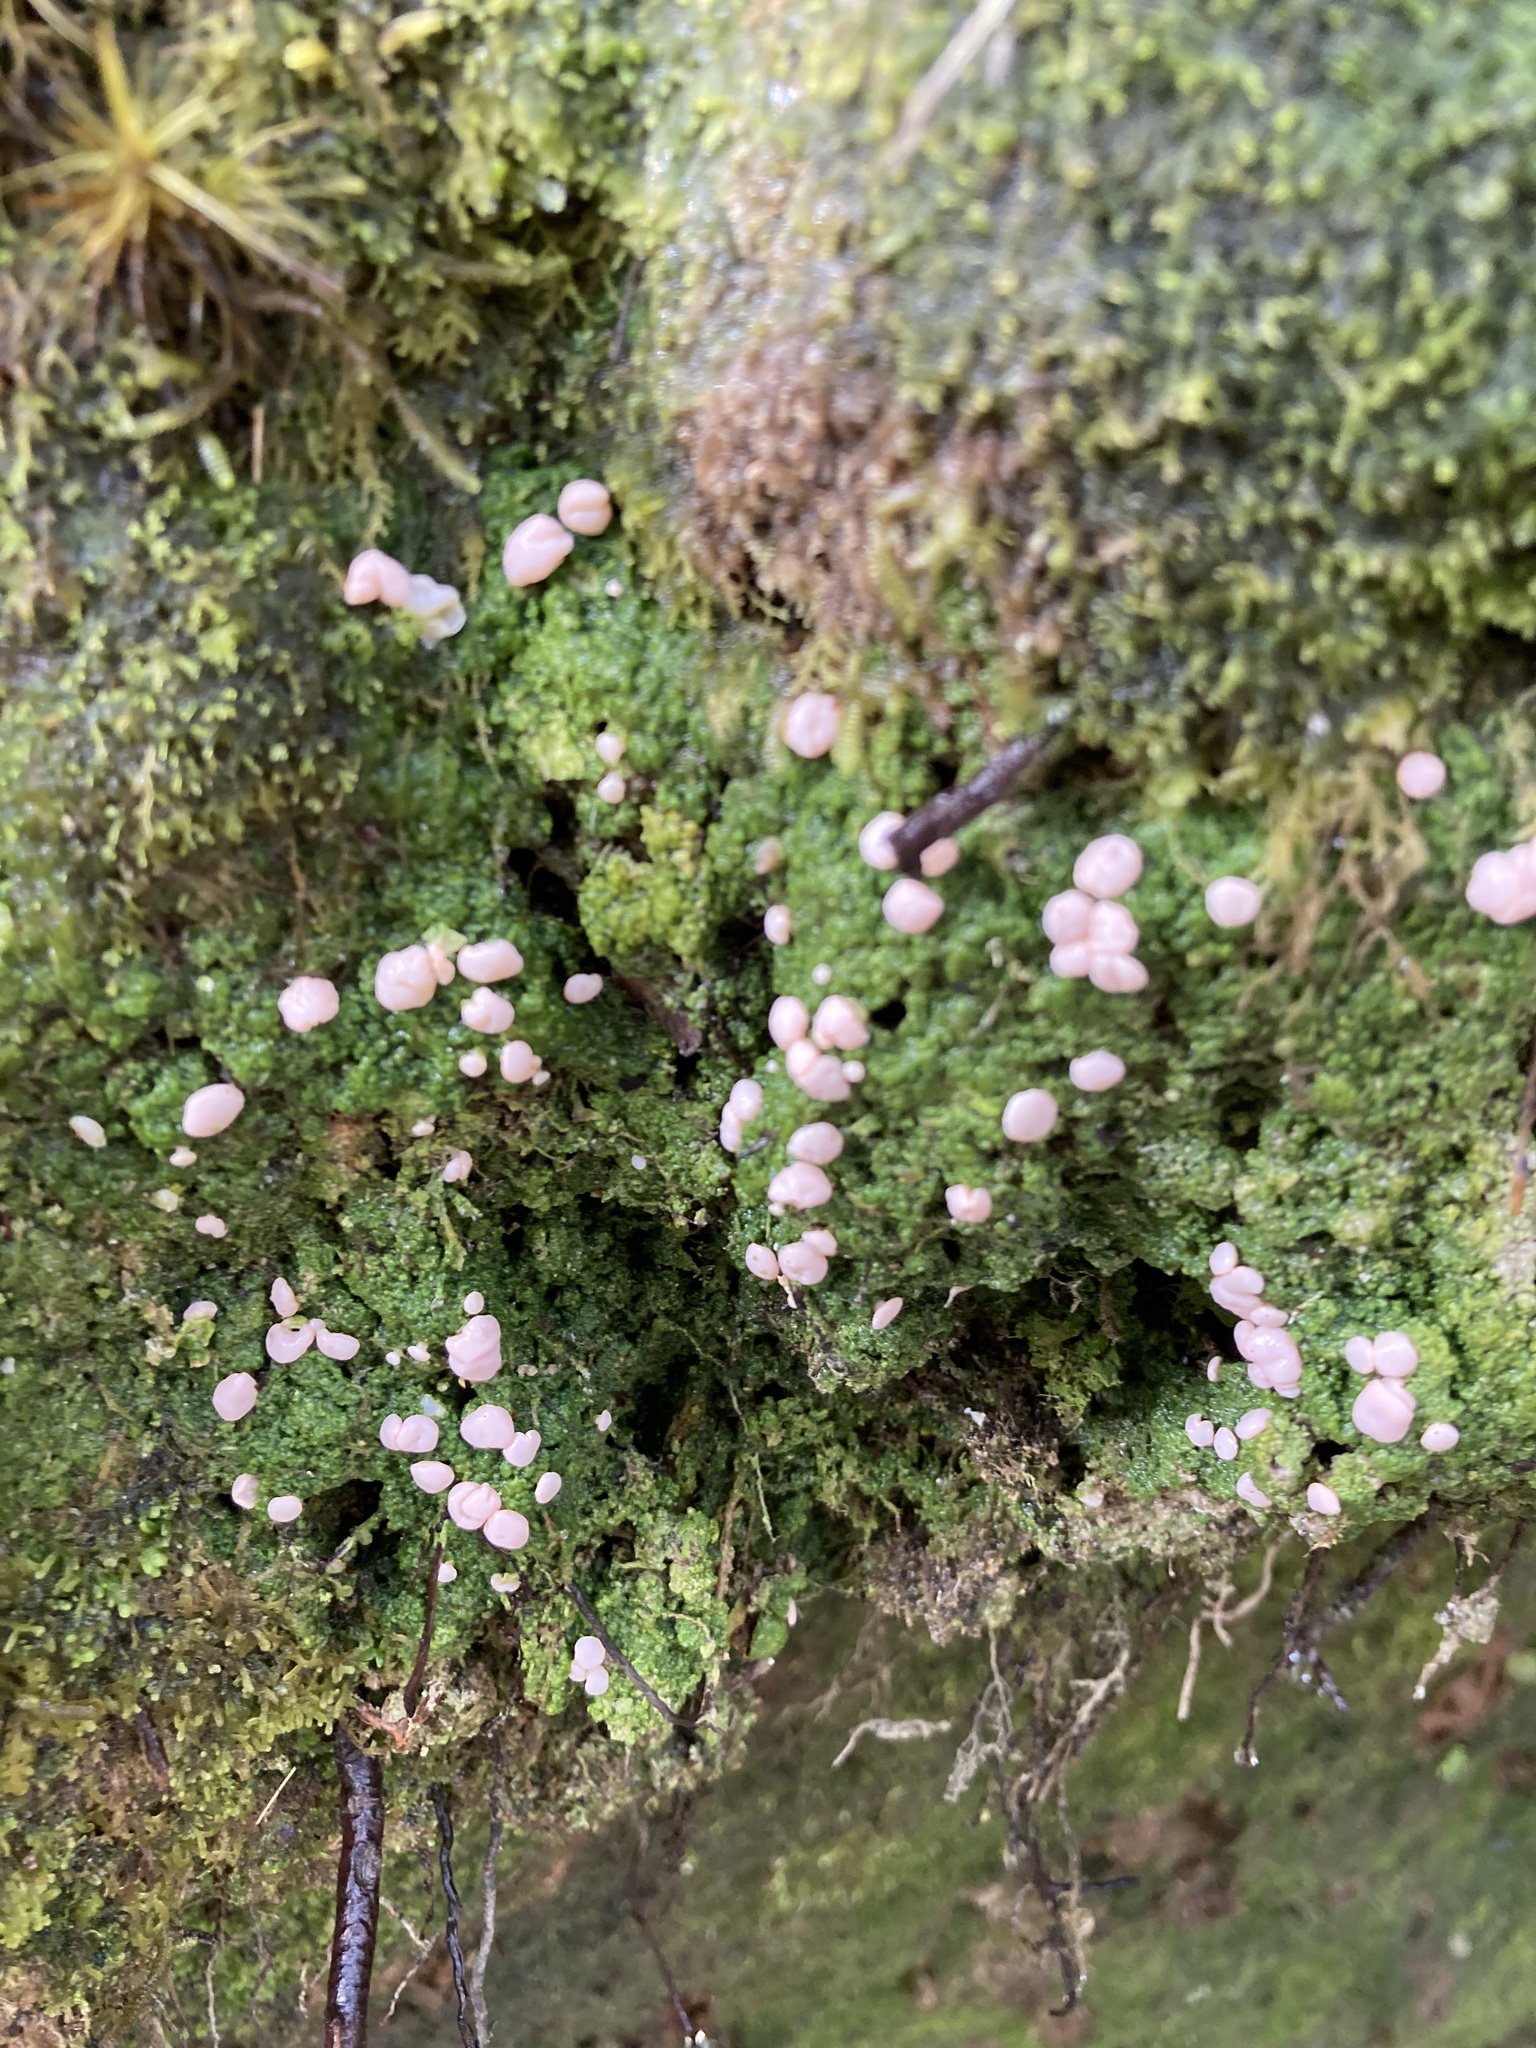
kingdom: Fungi
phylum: Ascomycota
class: Lecanoromycetes
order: Pertusariales
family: Icmadophilaceae
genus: Dibaeis
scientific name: Dibaeis absoluta
